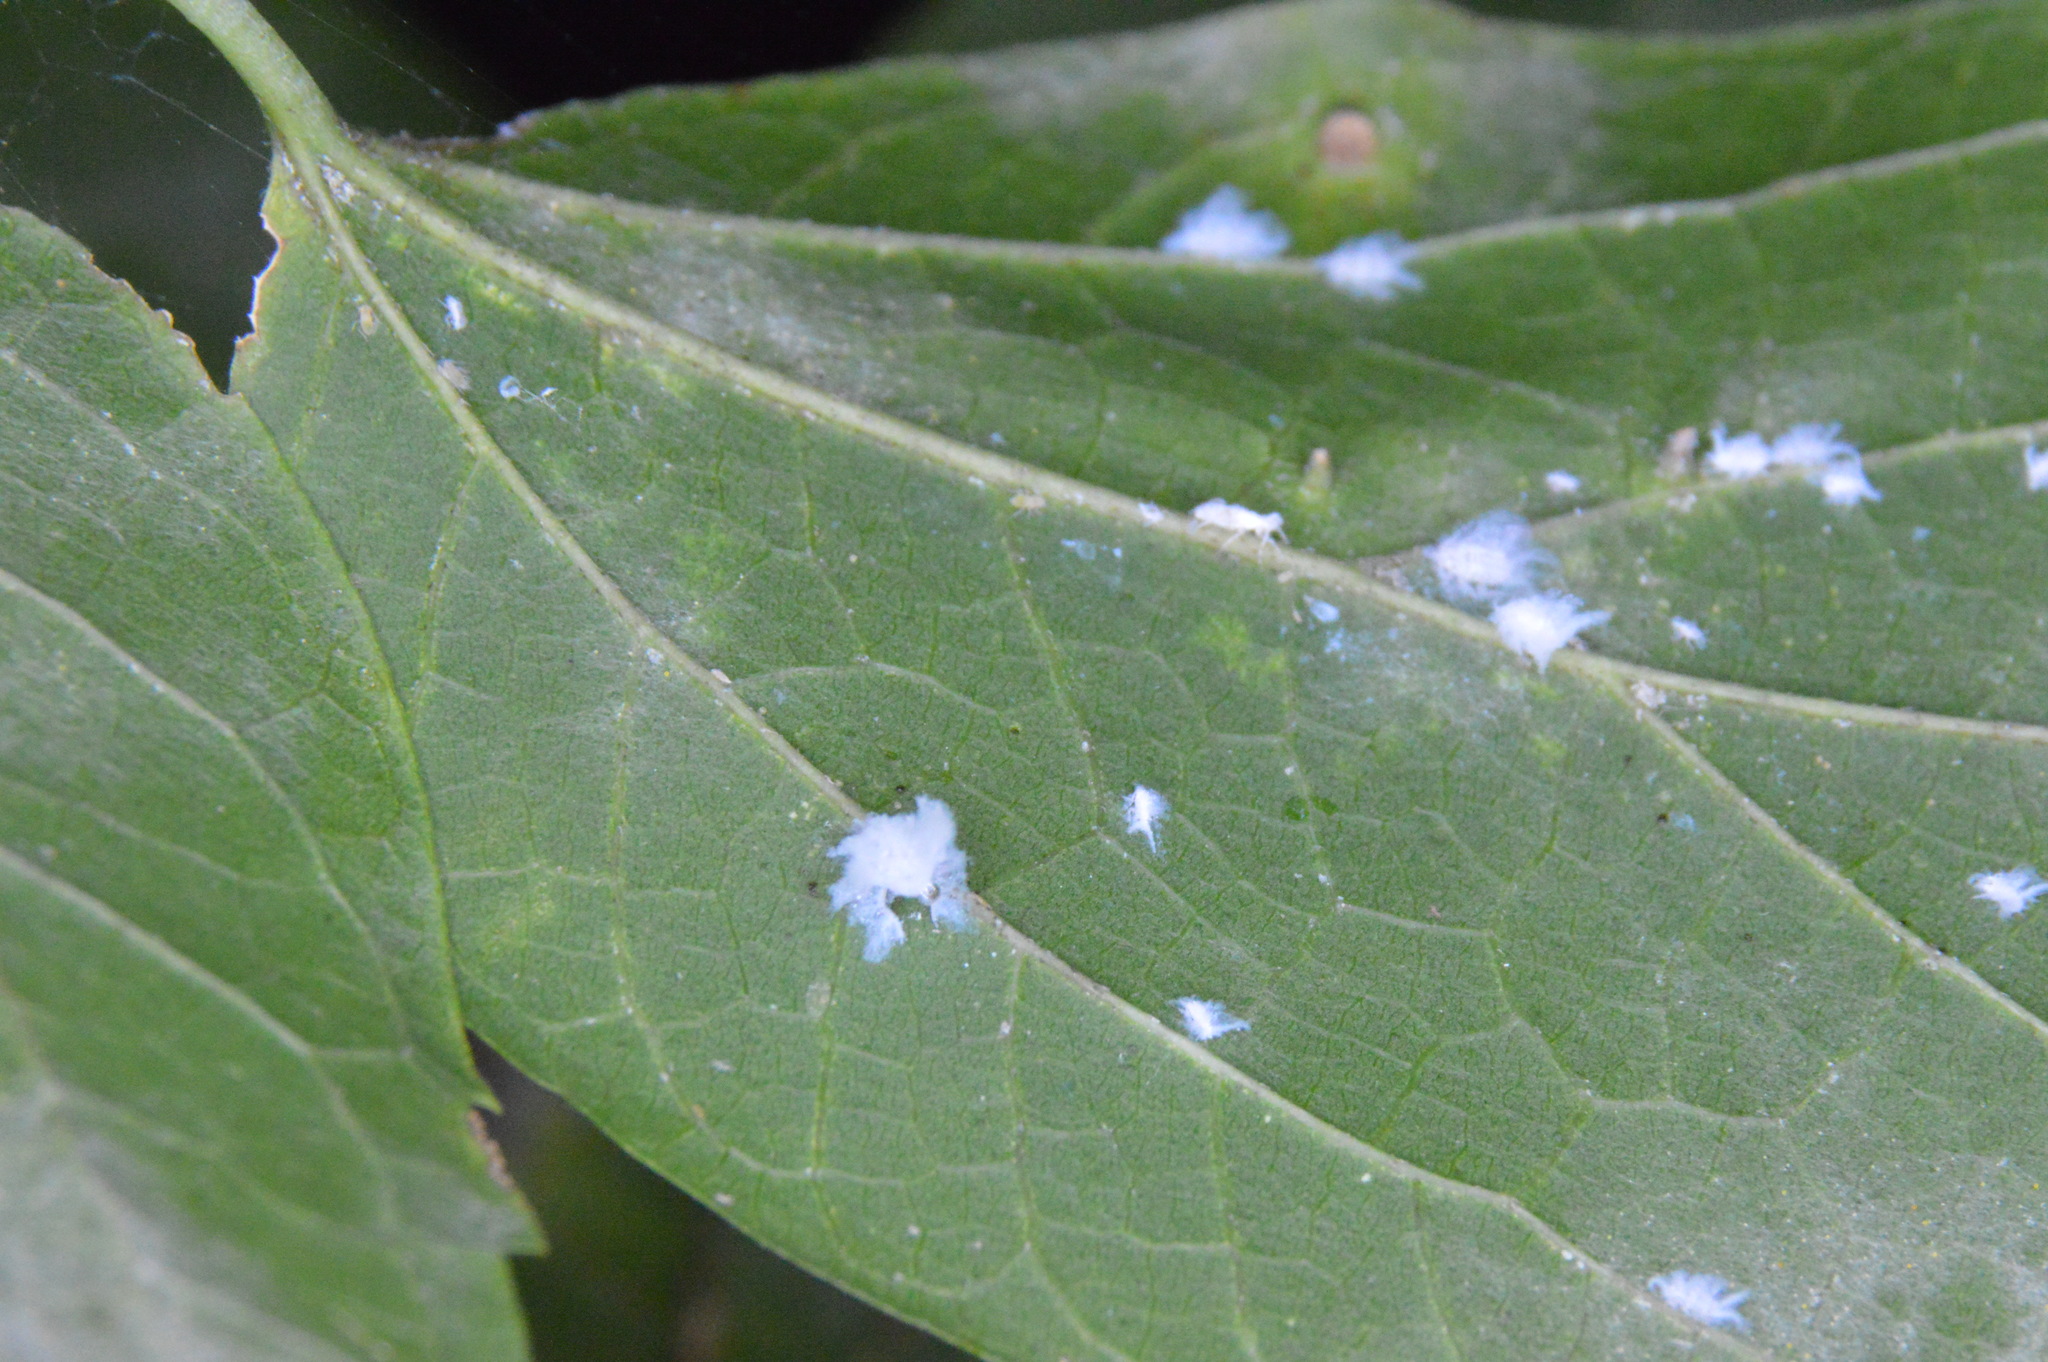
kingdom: Animalia
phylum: Arthropoda
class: Insecta
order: Hemiptera
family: Aphididae
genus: Shivaphis
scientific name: Shivaphis celti
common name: Asian wooly hackberry aphid
